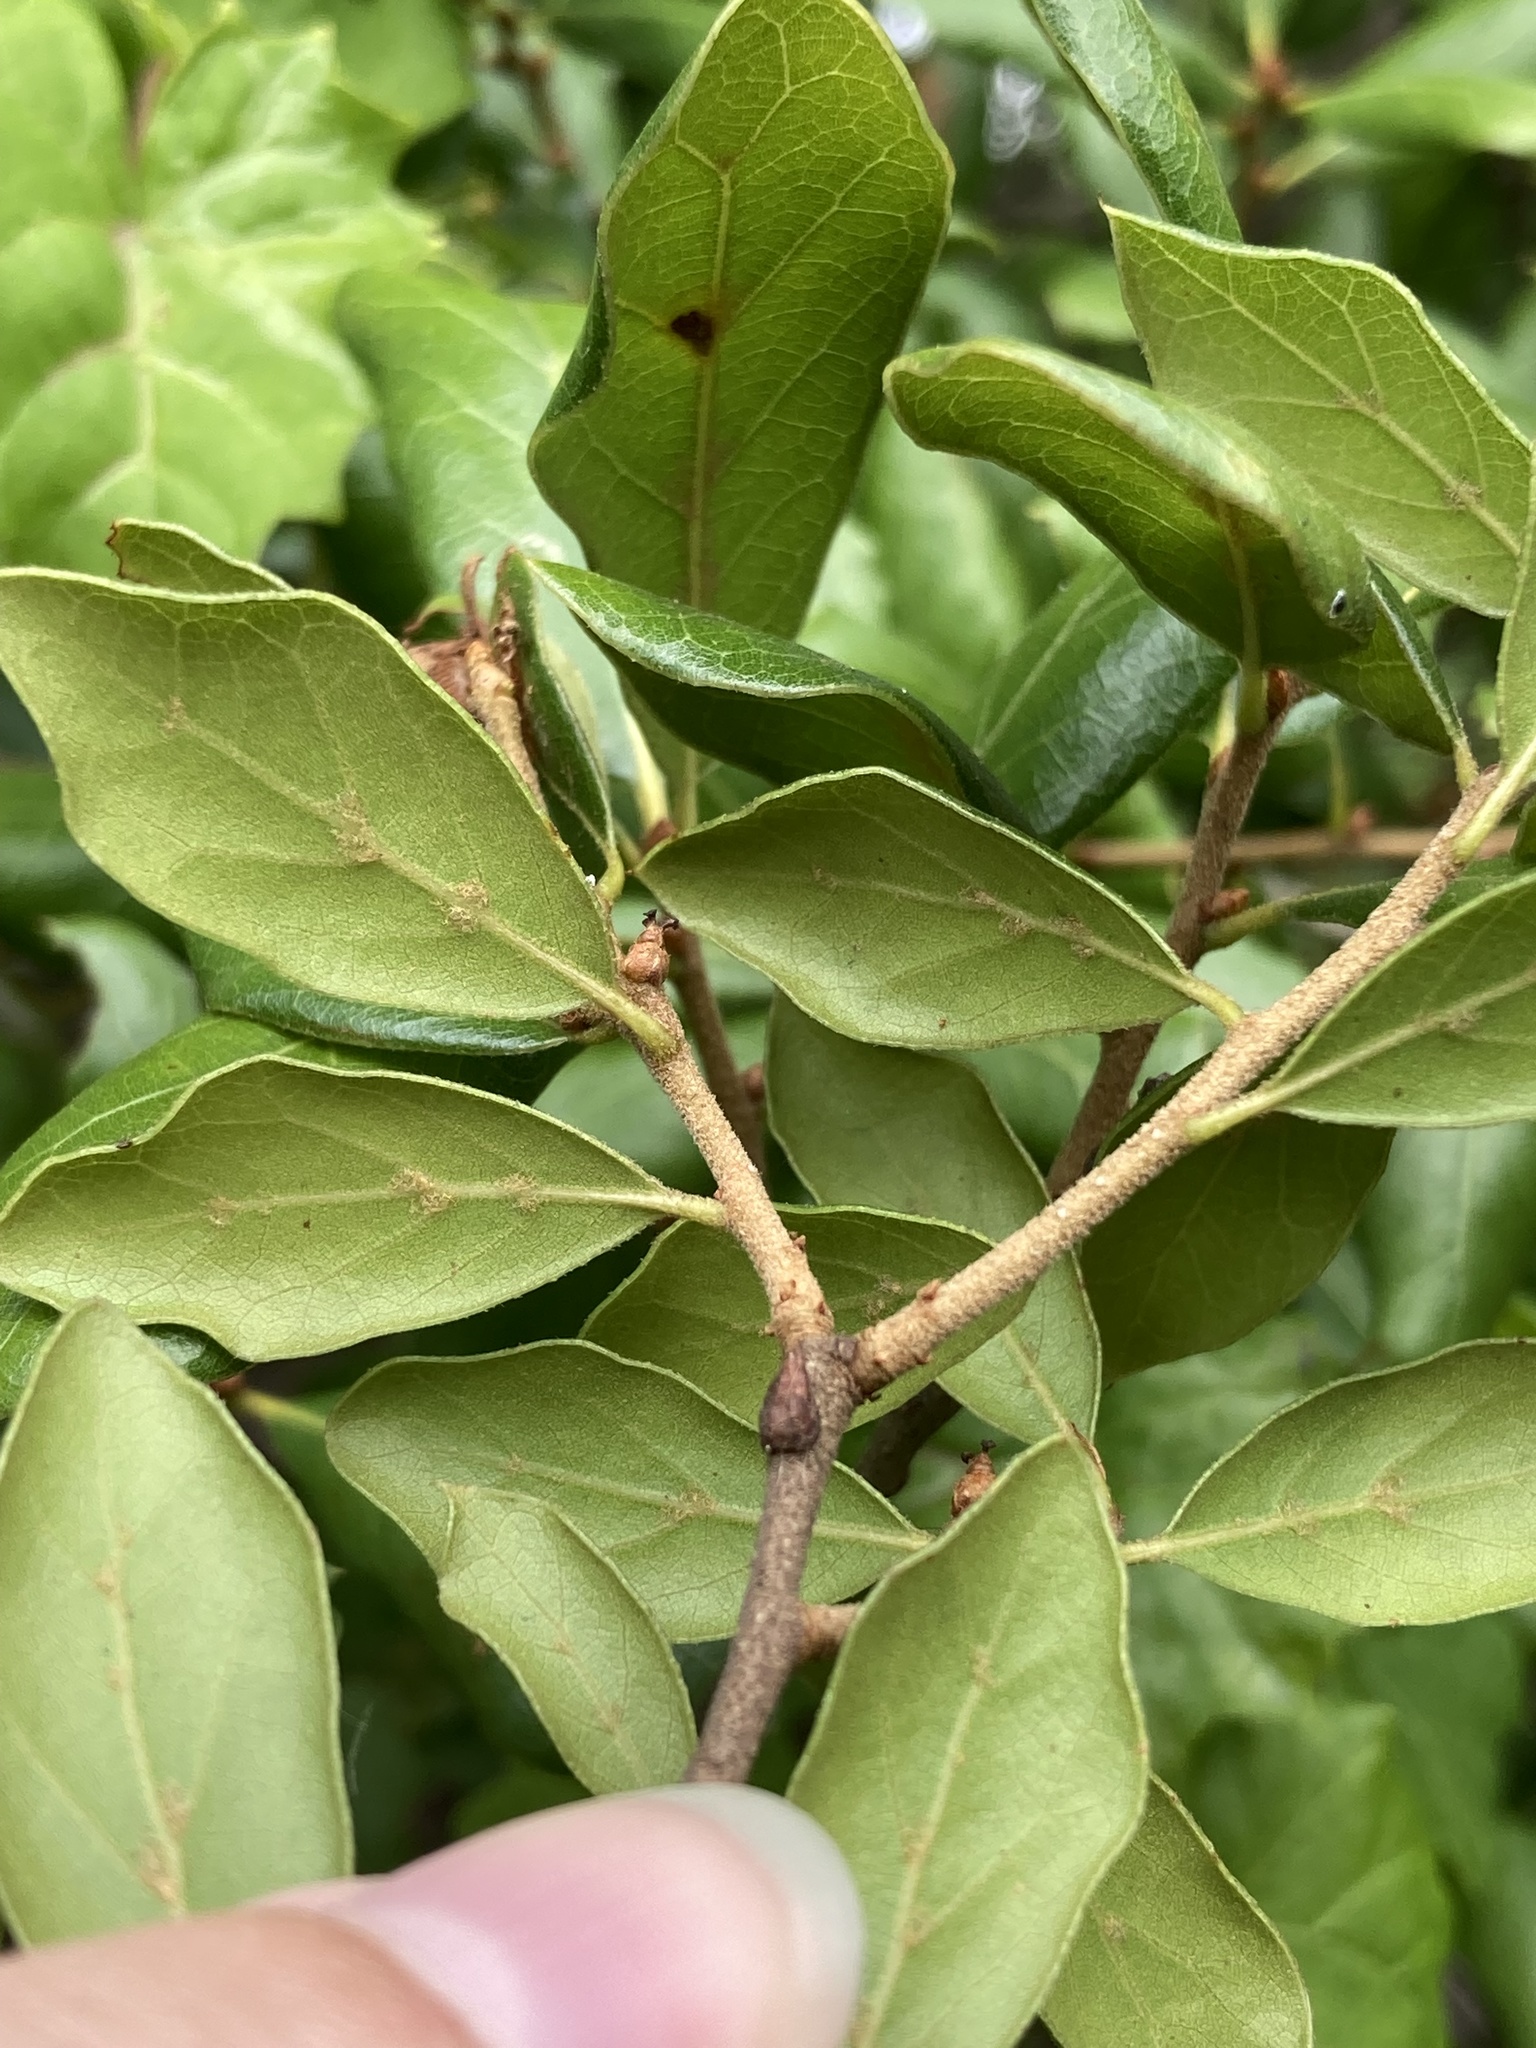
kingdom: Plantae
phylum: Tracheophyta
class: Magnoliopsida
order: Fagales
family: Fagaceae
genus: Quercus
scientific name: Quercus myrtifolia
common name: Myrtle oak
